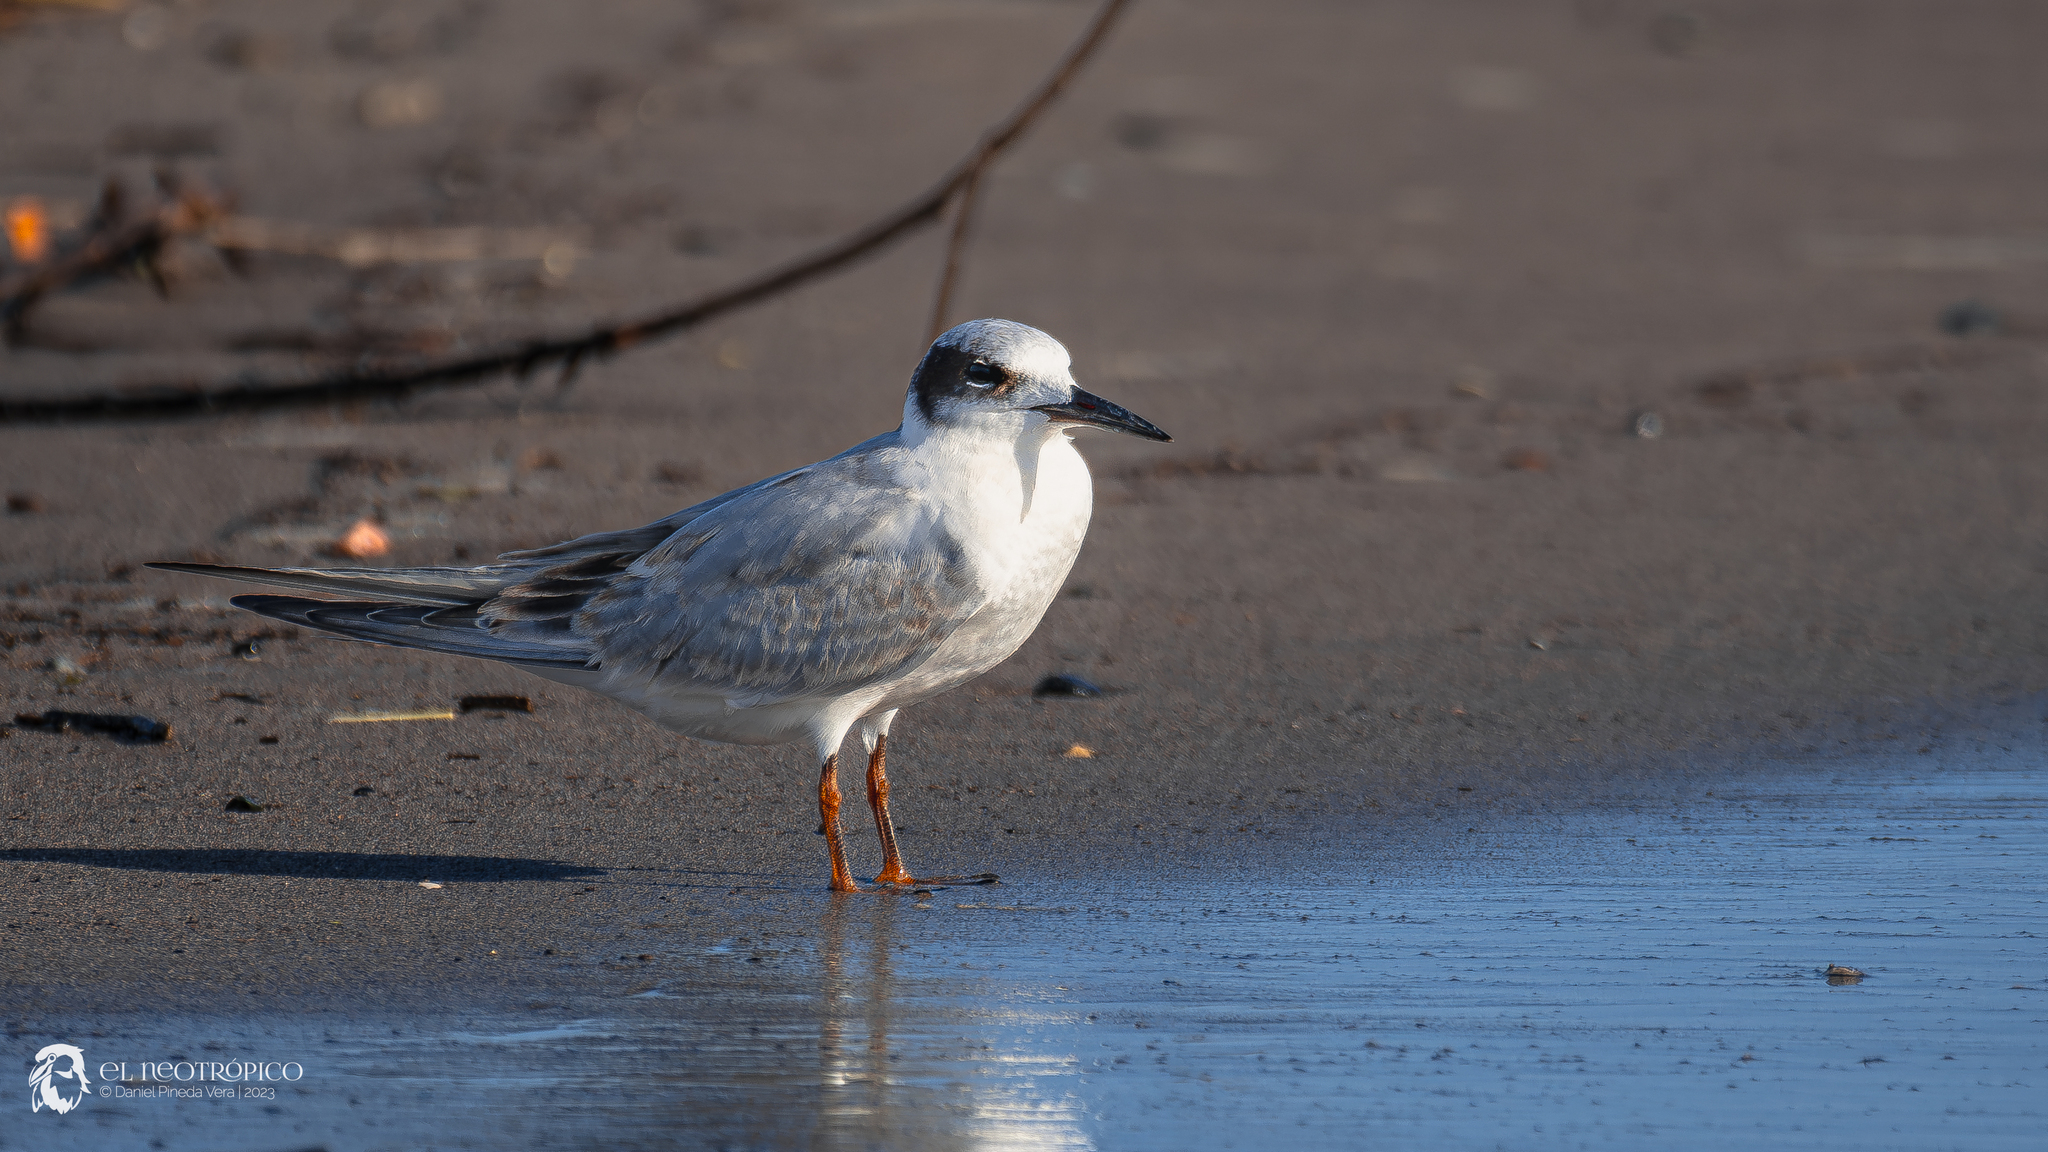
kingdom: Animalia
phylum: Chordata
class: Aves
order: Charadriiformes
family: Laridae
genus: Sterna
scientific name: Sterna forsteri
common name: Forster's tern
